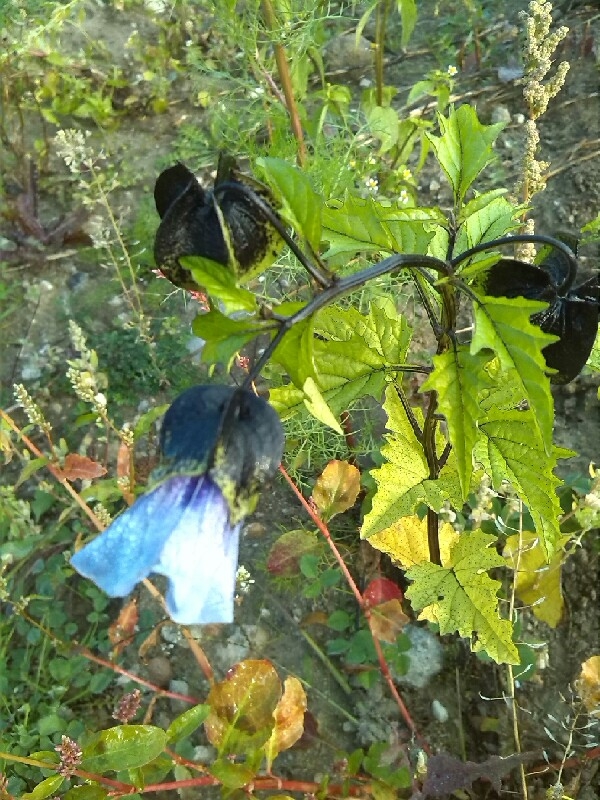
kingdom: Plantae
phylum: Tracheophyta
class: Magnoliopsida
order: Solanales
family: Solanaceae
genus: Nicandra
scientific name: Nicandra physalodes
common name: Apple-of-peru
